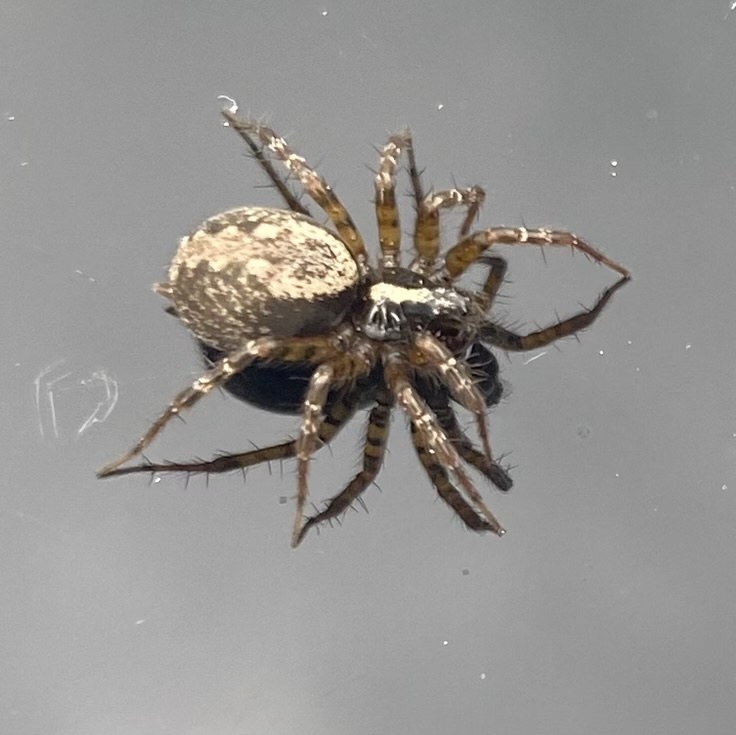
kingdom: Animalia
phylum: Arthropoda
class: Arachnida
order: Araneae
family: Agelenidae
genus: Textrix
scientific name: Textrix denticulata
